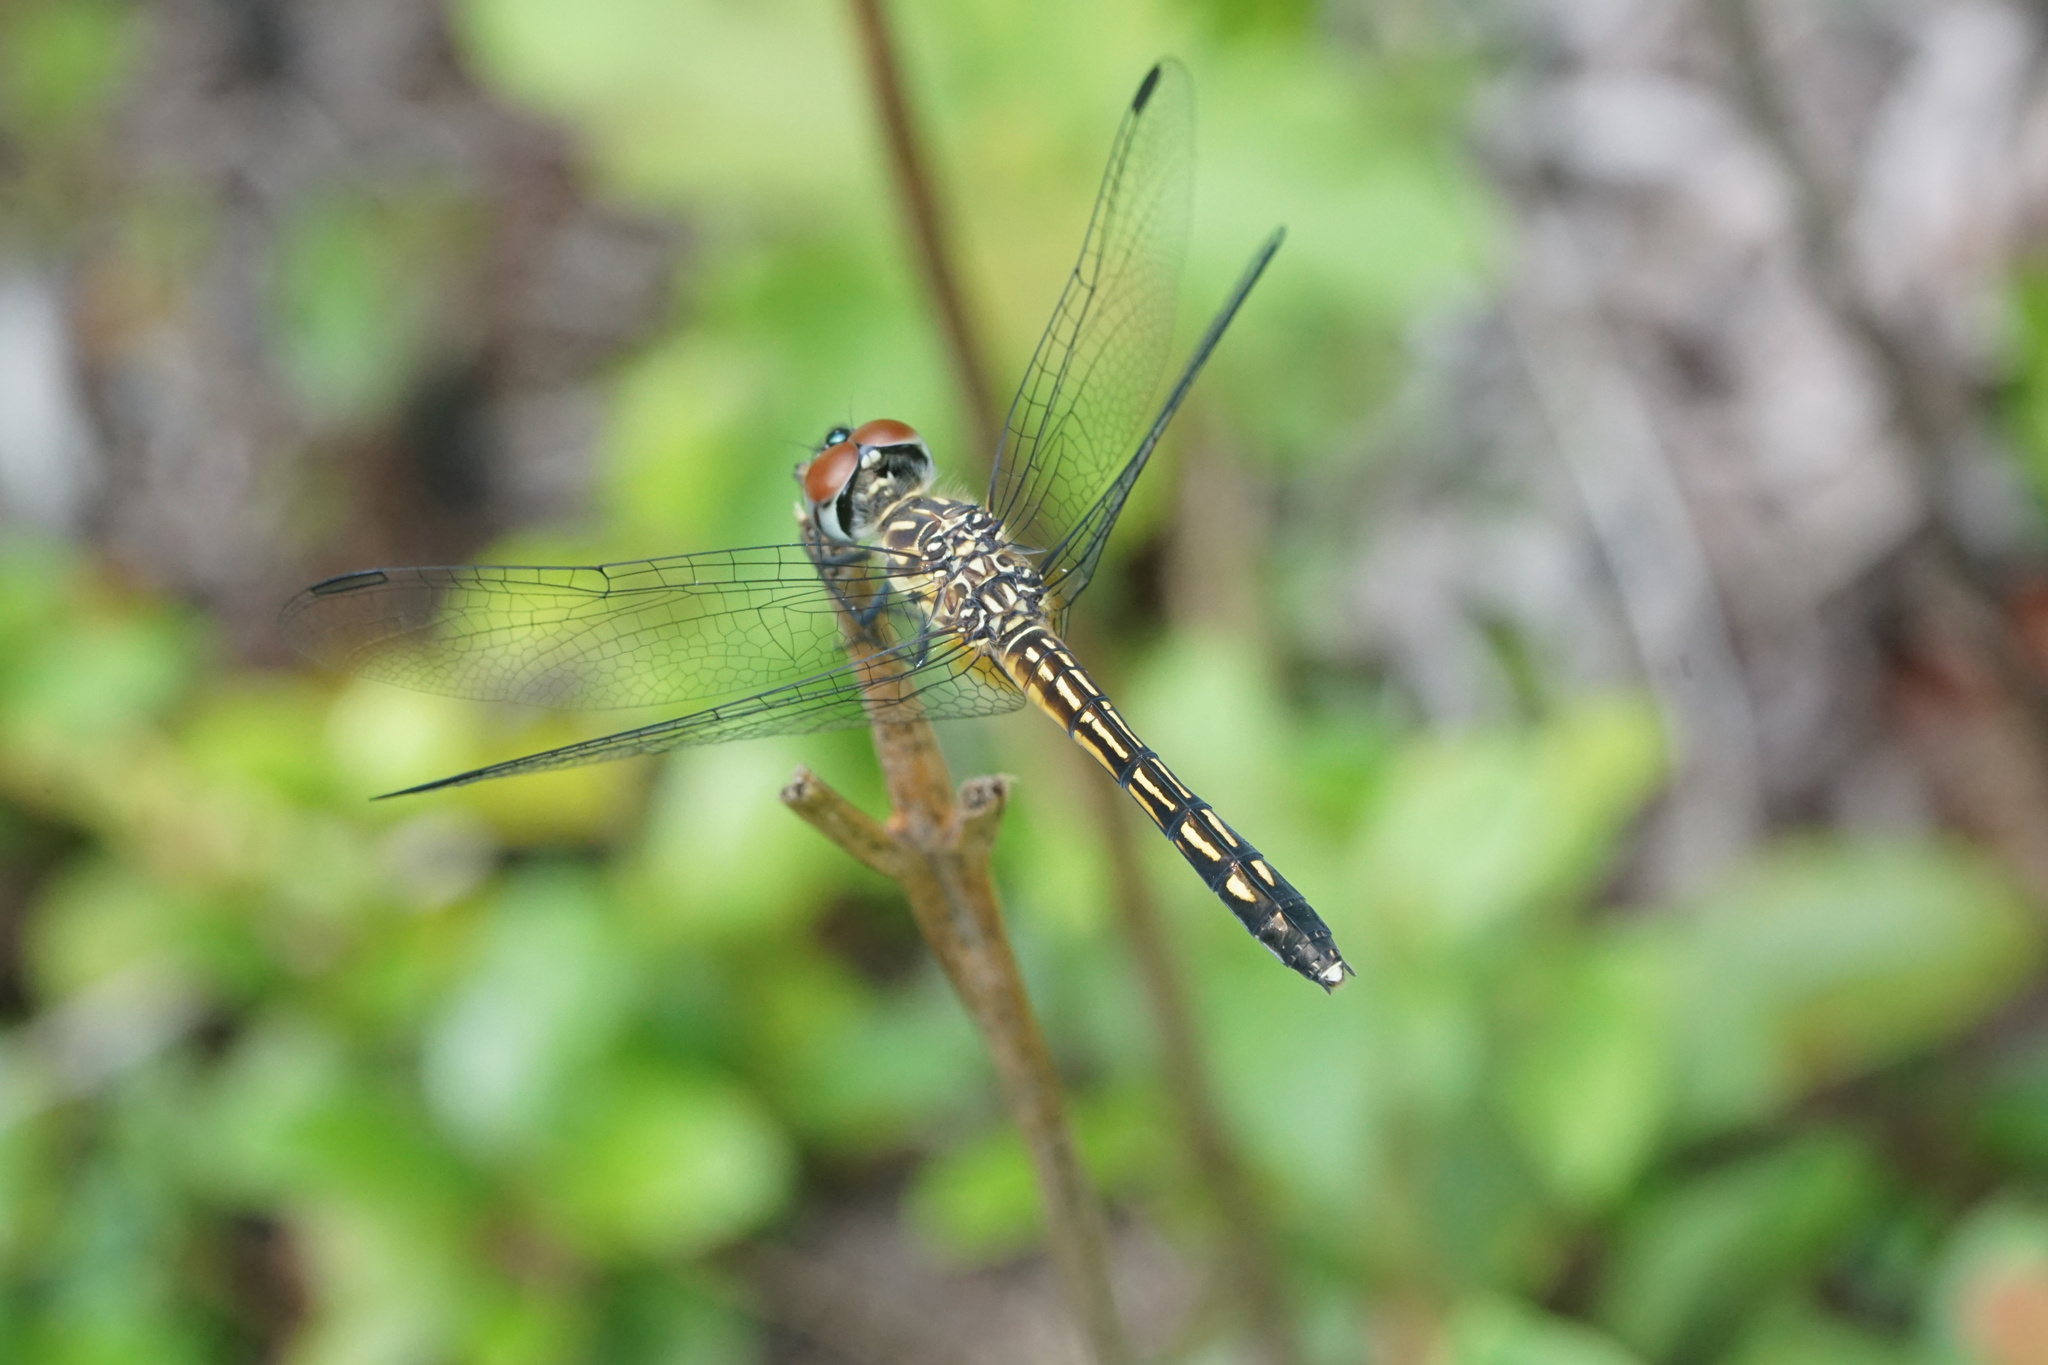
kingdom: Animalia
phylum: Arthropoda
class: Insecta
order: Odonata
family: Libellulidae
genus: Pachydiplax
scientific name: Pachydiplax longipennis
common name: Blue dasher
